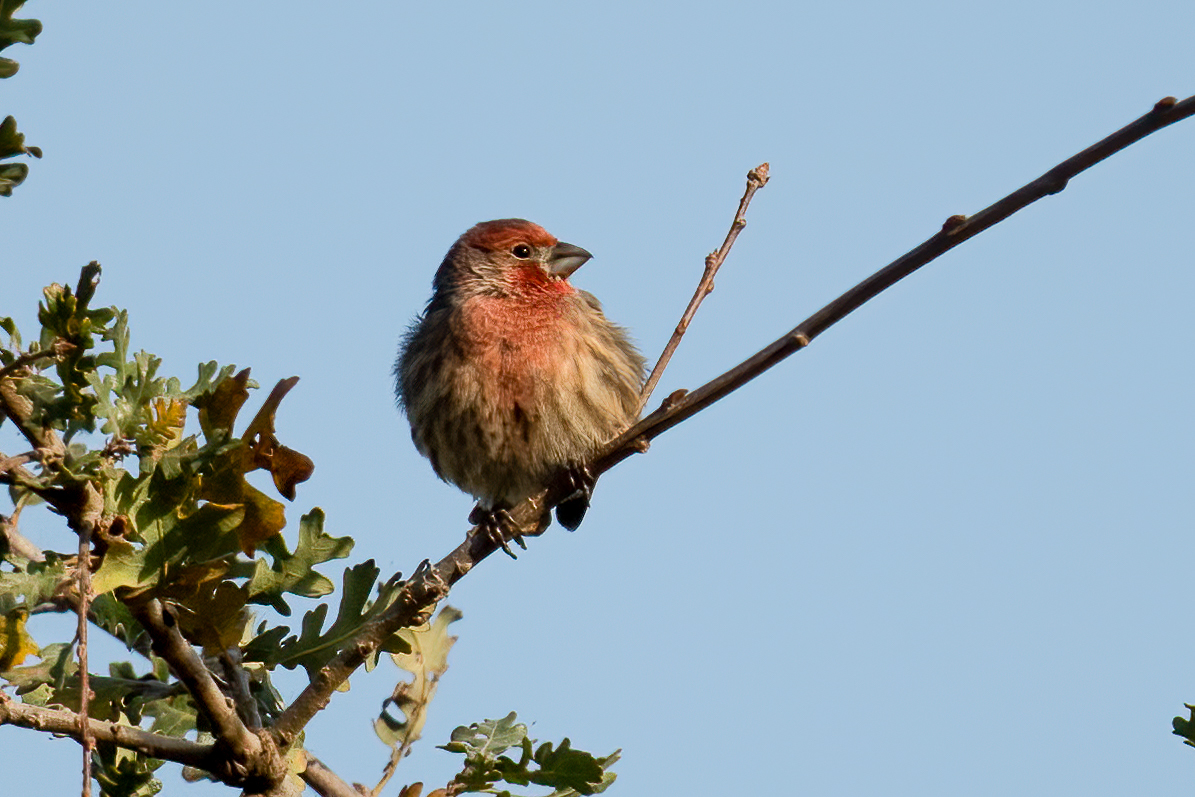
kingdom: Animalia
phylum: Chordata
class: Aves
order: Passeriformes
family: Fringillidae
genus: Haemorhous
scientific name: Haemorhous mexicanus
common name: House finch
